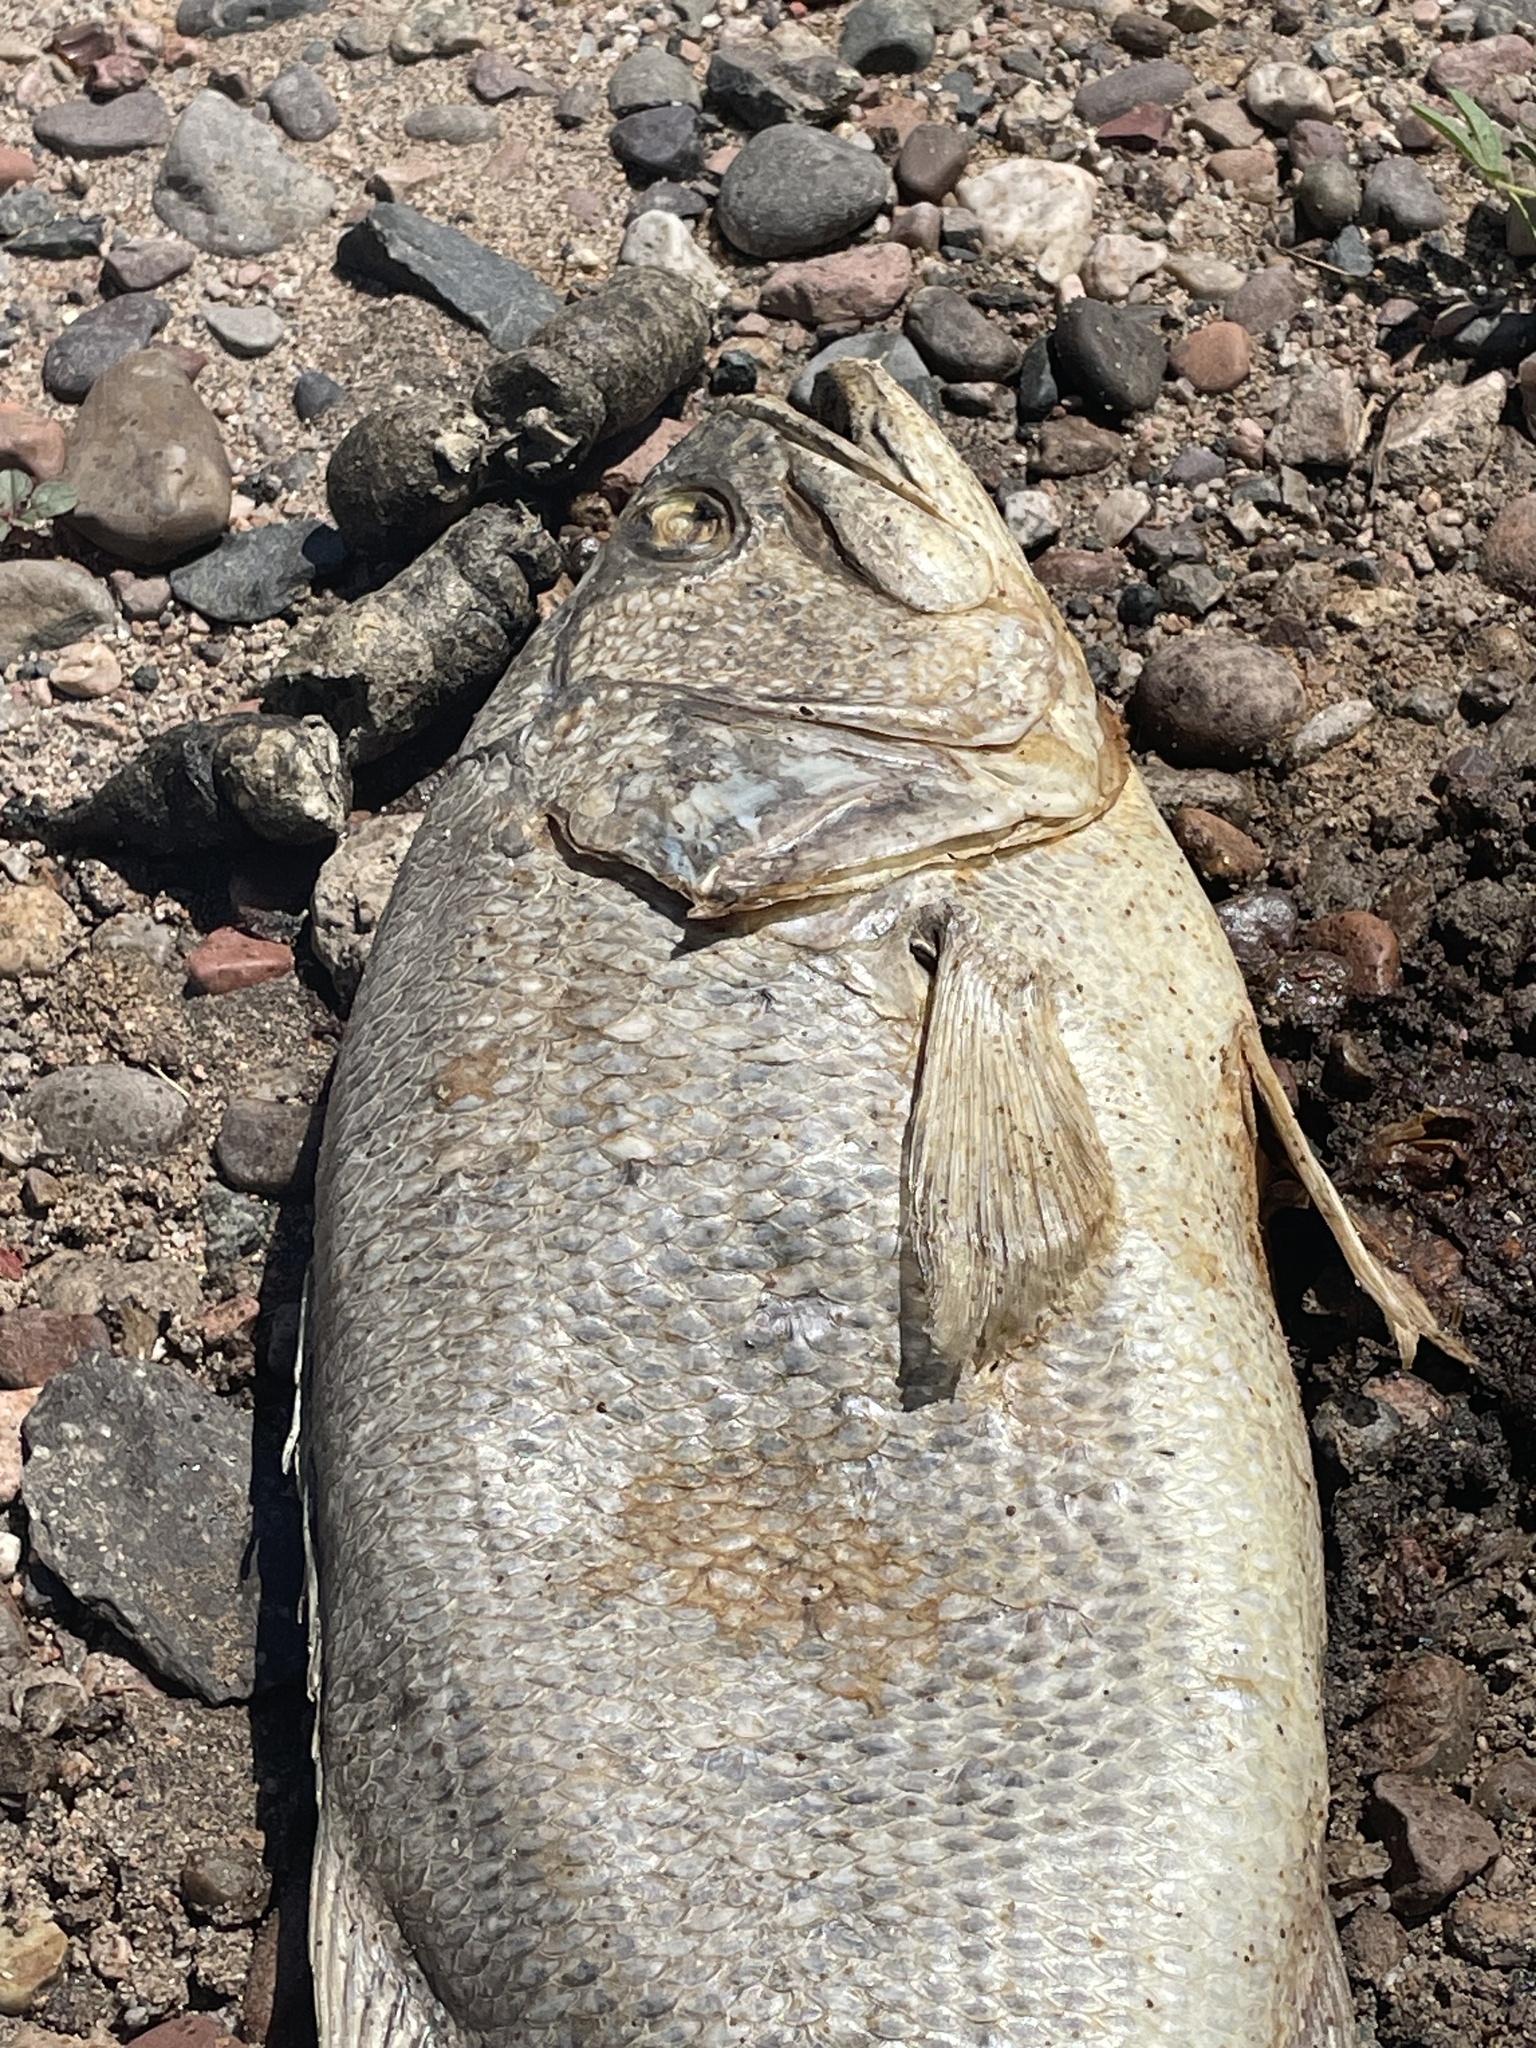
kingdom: Animalia
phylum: Chordata
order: Perciformes
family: Centrarchidae
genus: Micropterus
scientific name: Micropterus
